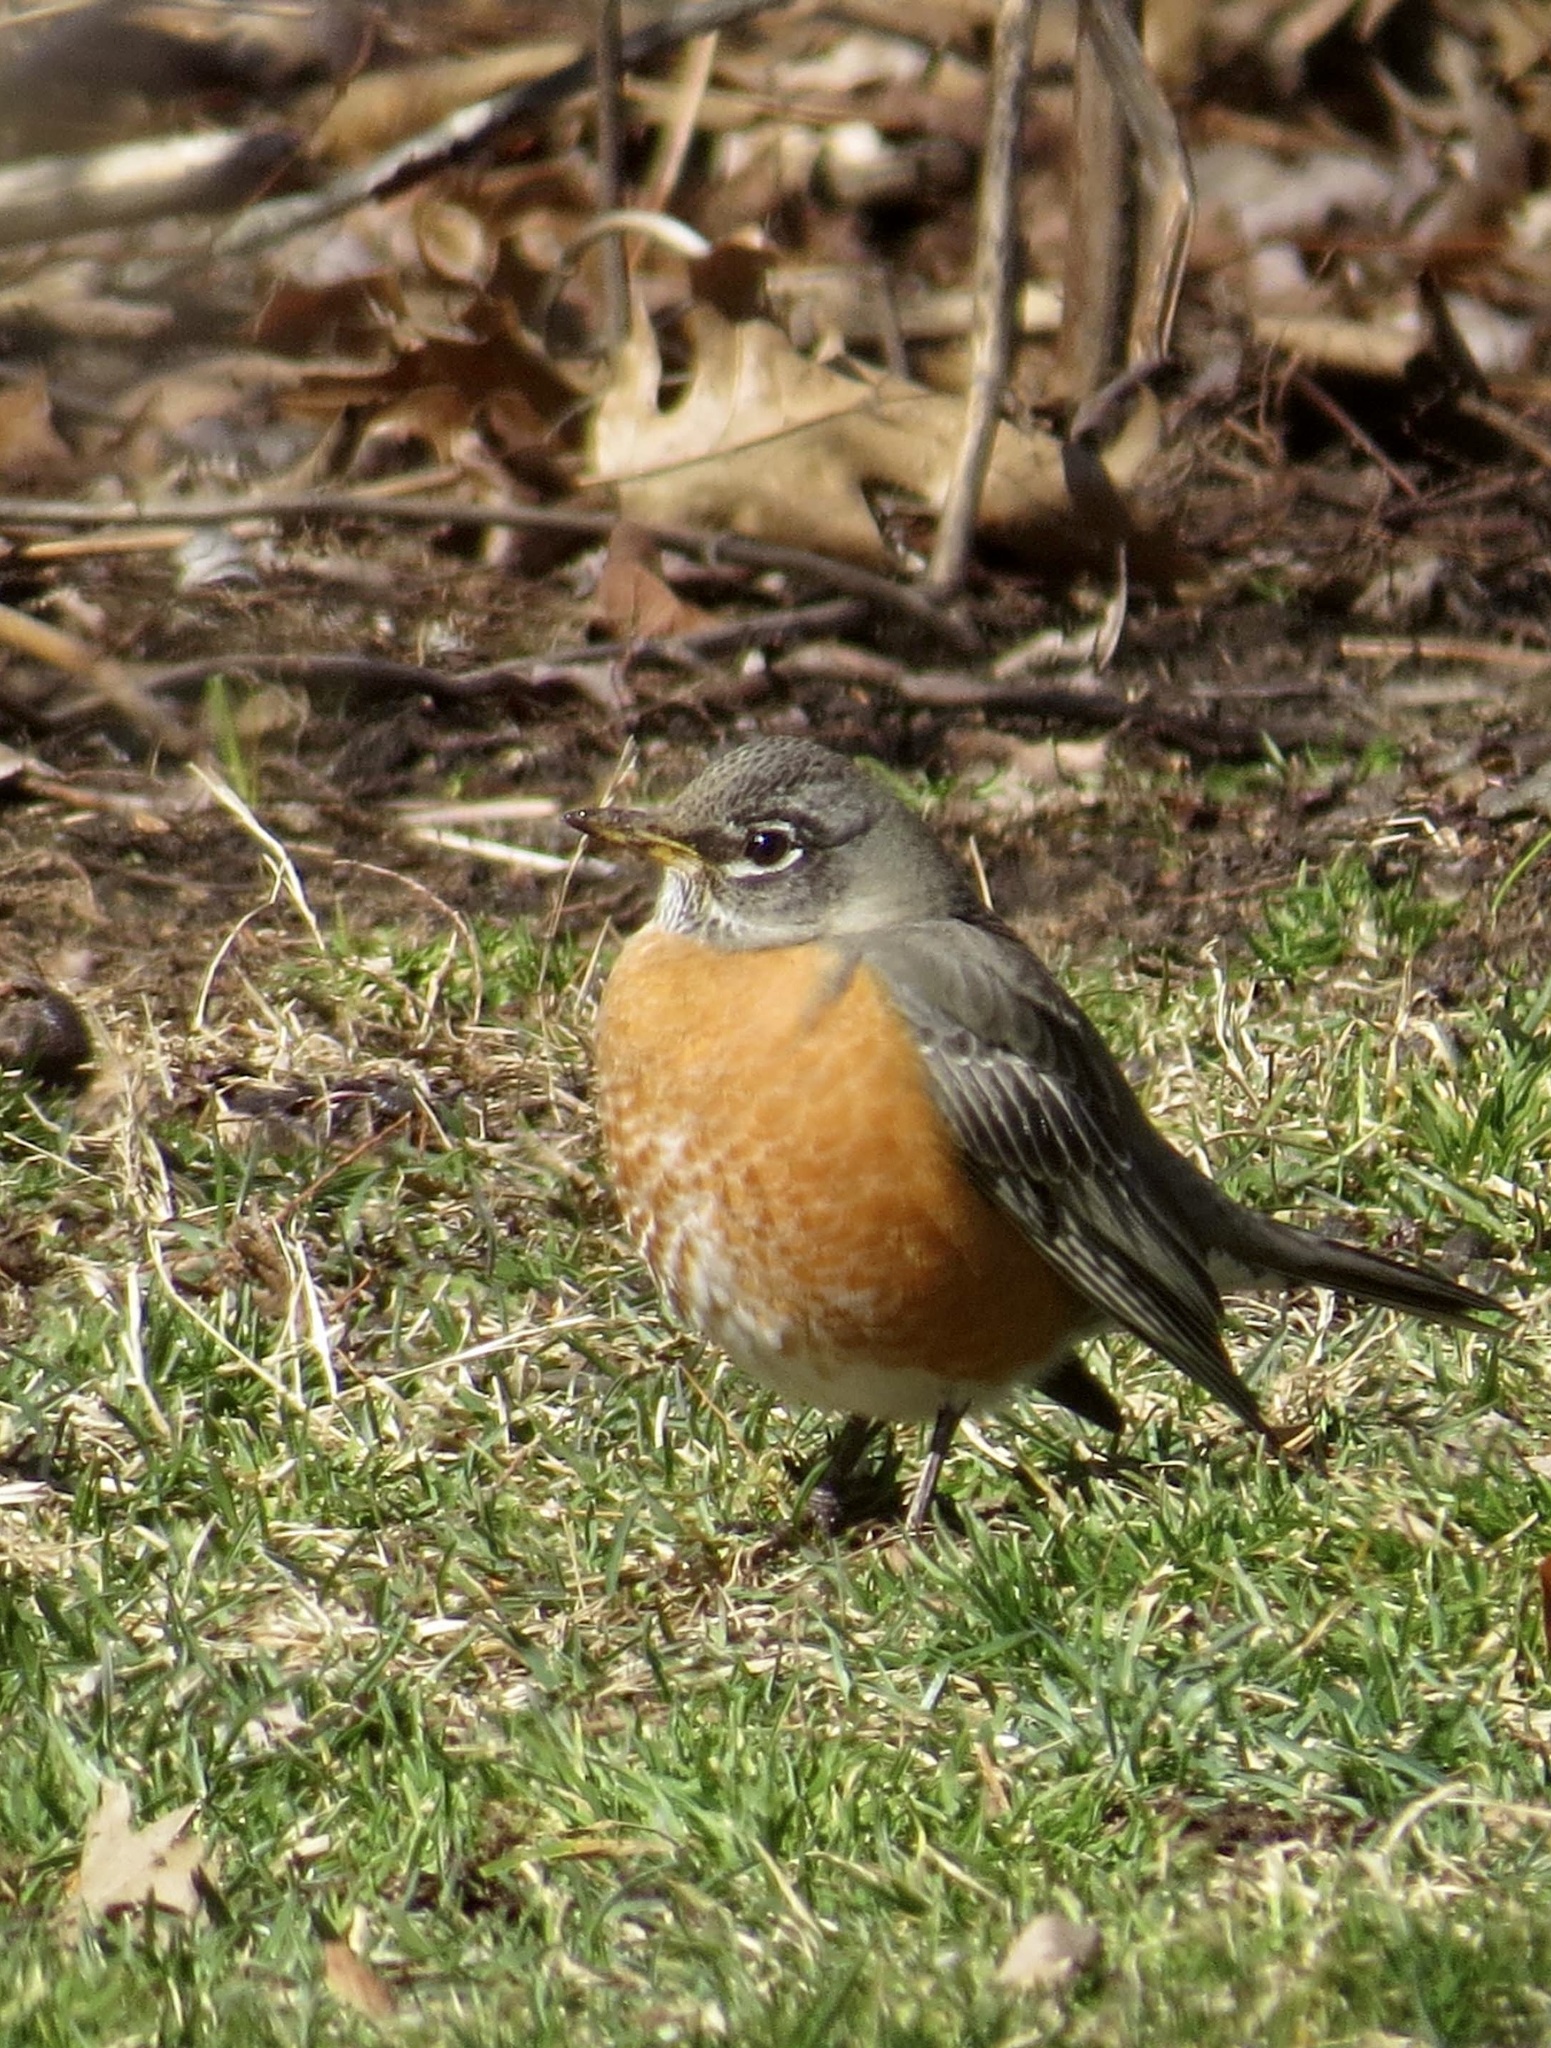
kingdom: Animalia
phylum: Chordata
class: Aves
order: Passeriformes
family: Turdidae
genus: Turdus
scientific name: Turdus migratorius
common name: American robin
